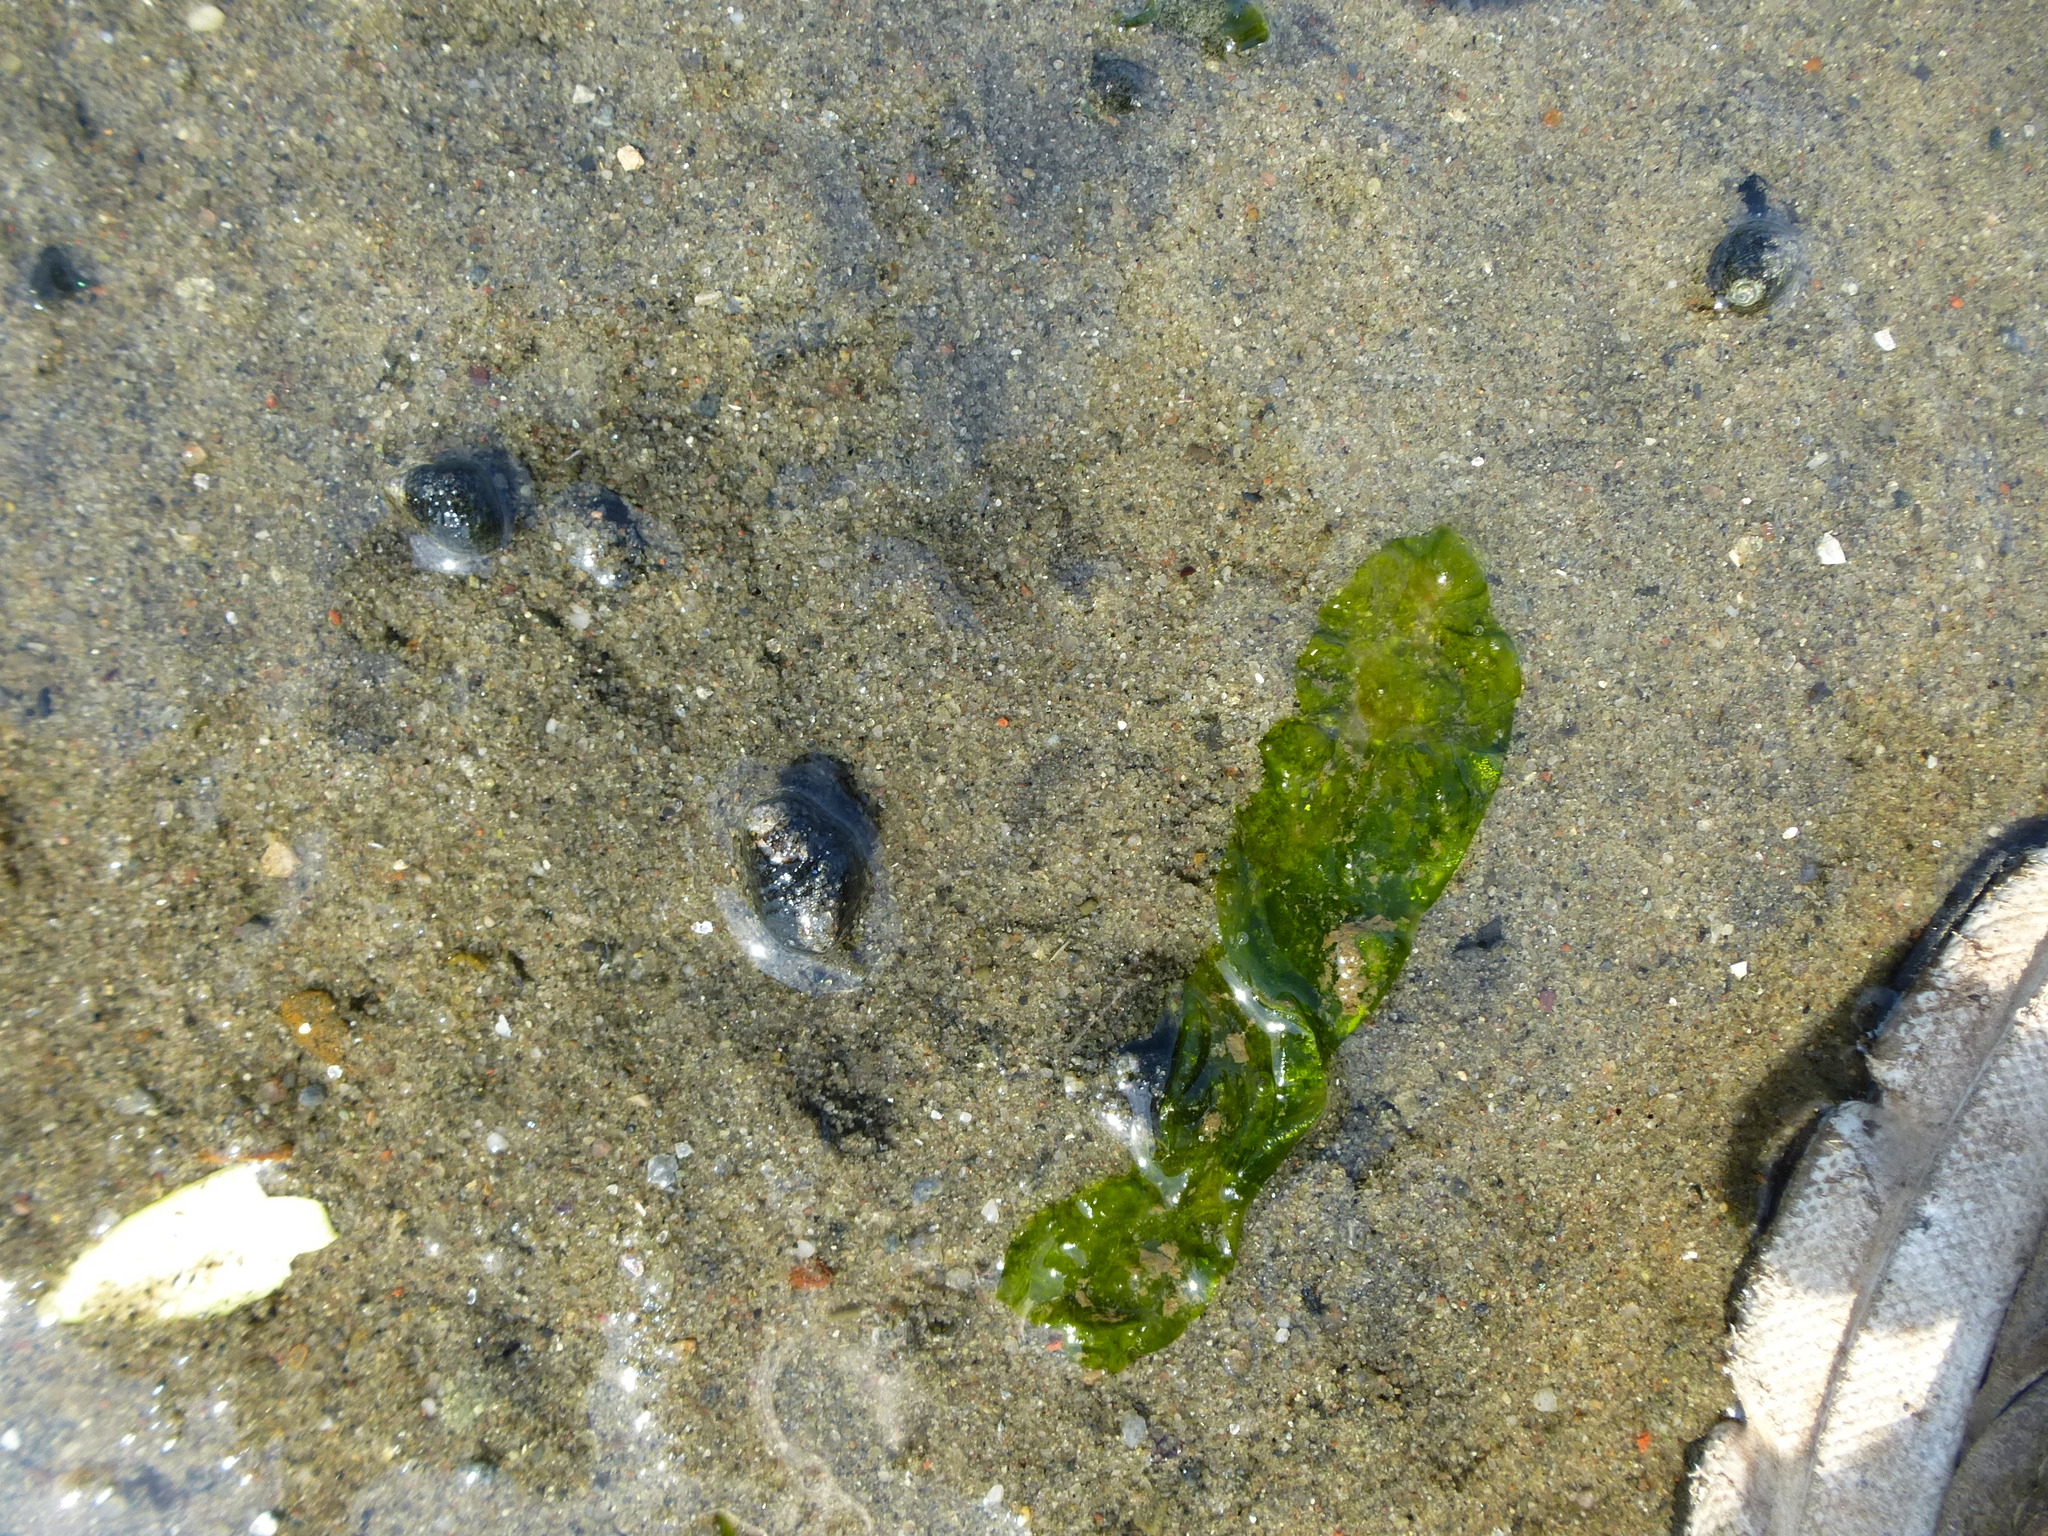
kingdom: Animalia
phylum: Mollusca
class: Gastropoda
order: Neogastropoda
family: Nassariidae
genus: Ilyanassa
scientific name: Ilyanassa obsoleta
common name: Eastern mudsnail
